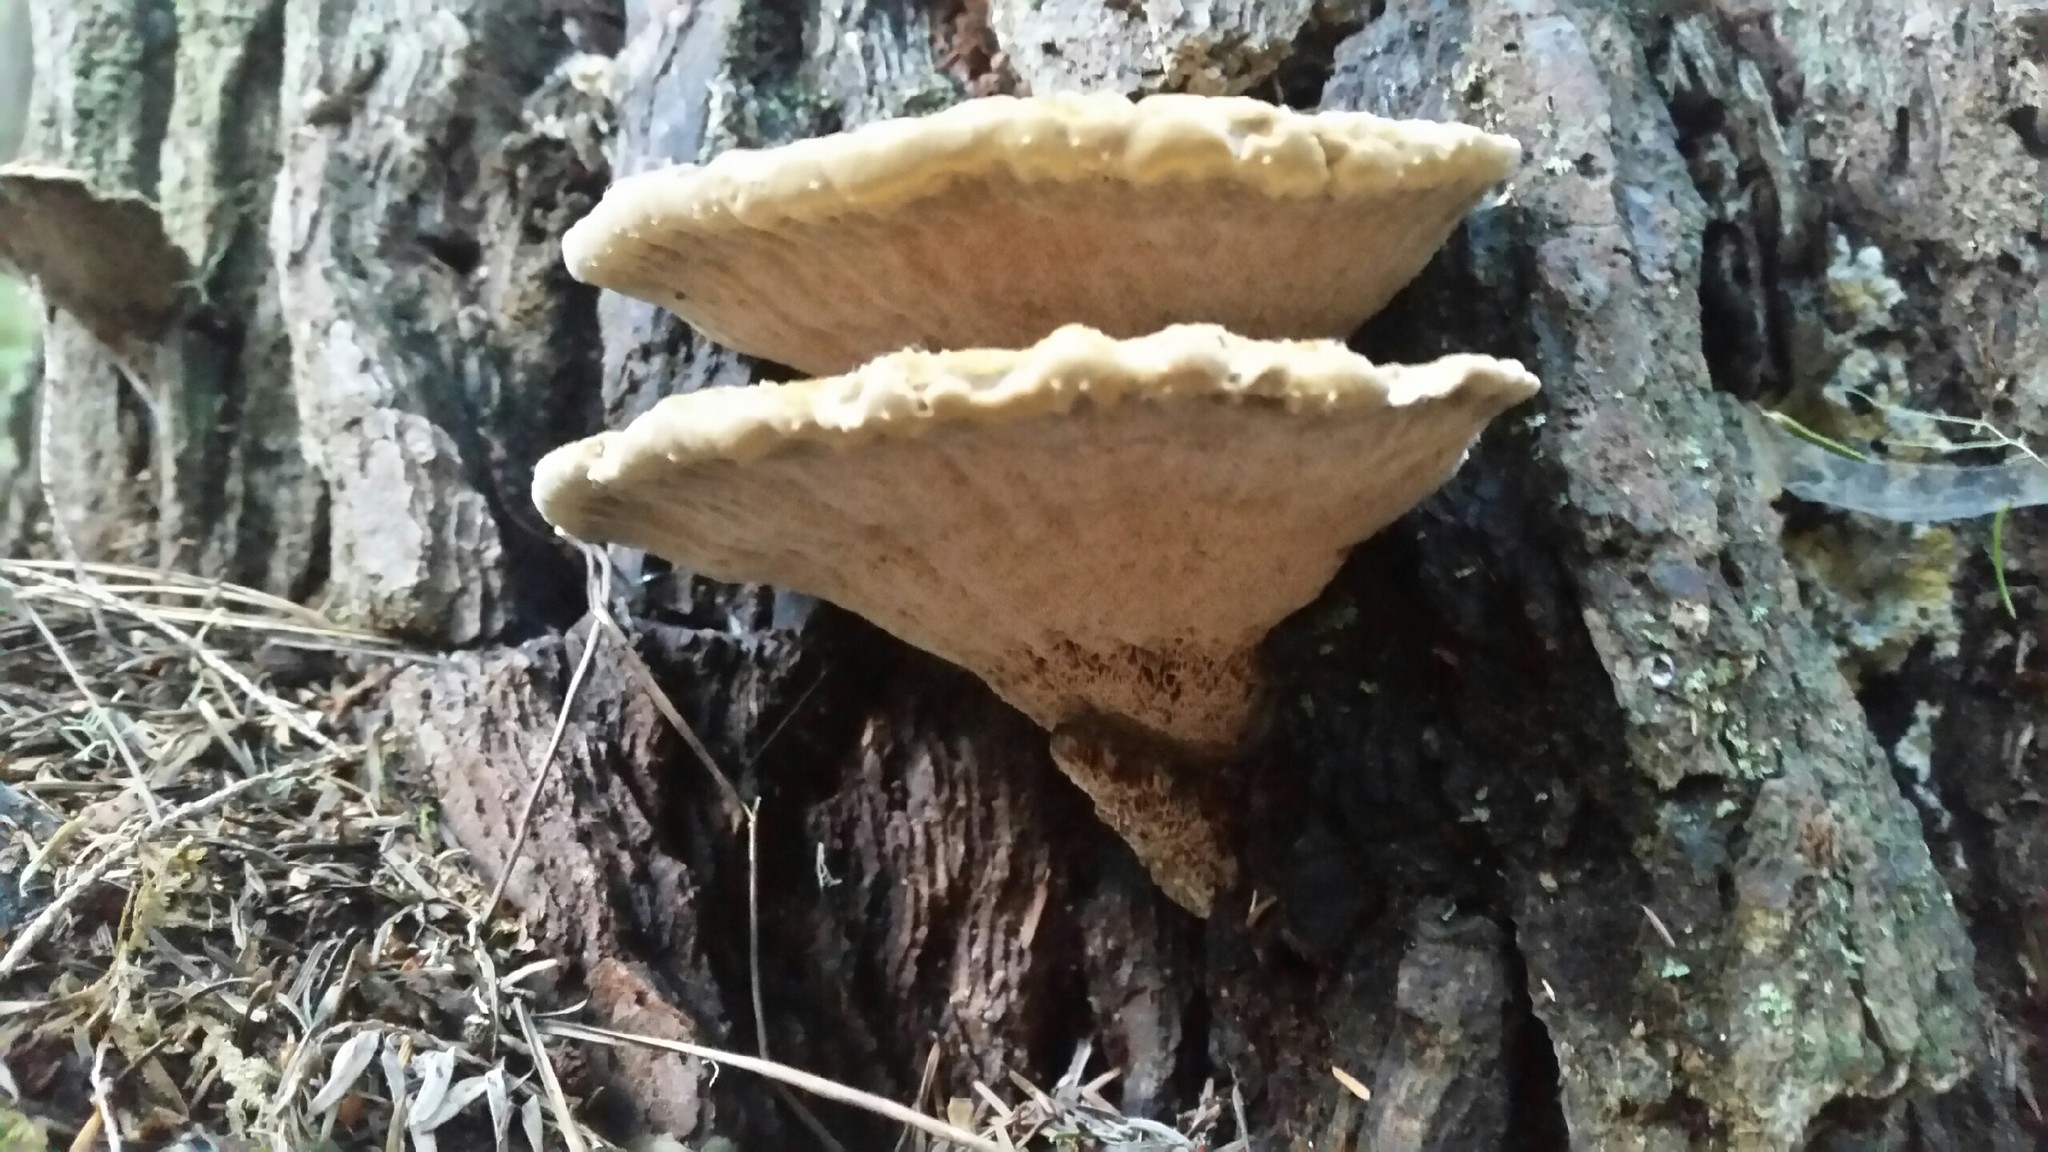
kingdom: Fungi
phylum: Basidiomycota
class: Agaricomycetes
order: Hymenochaetales
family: Hymenochaetaceae
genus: Phellinus
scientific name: Phellinus gilvus
